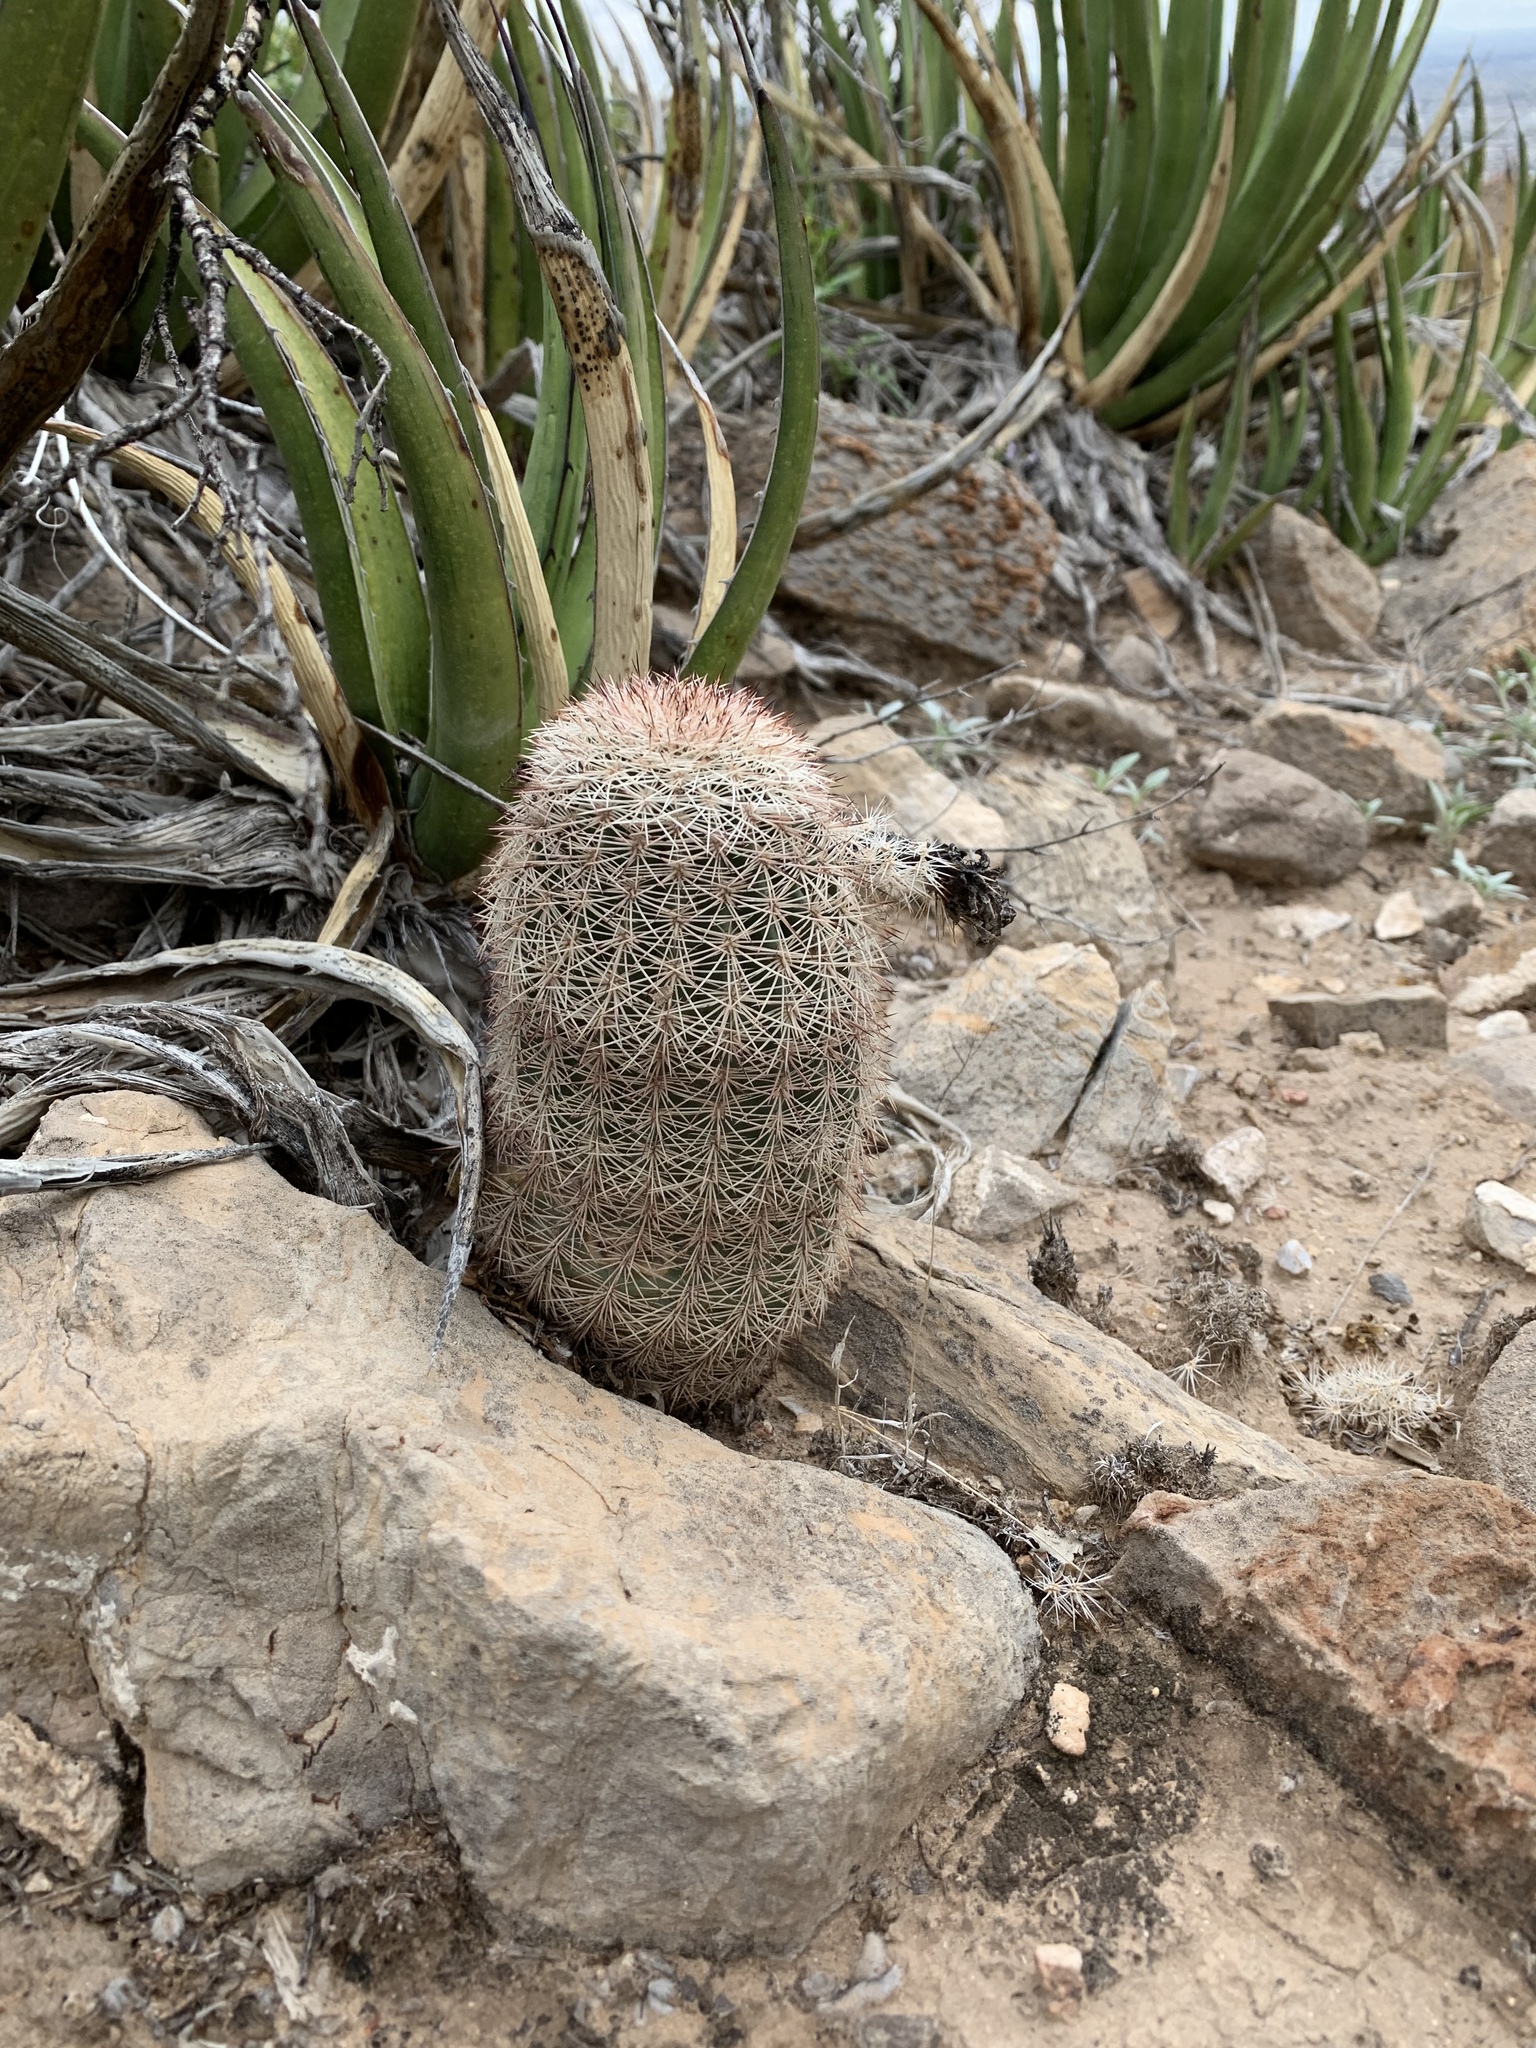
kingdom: Plantae
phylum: Tracheophyta
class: Magnoliopsida
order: Caryophyllales
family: Cactaceae
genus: Echinocereus
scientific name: Echinocereus dasyacanthus
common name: Spiny hedgehog cactus
